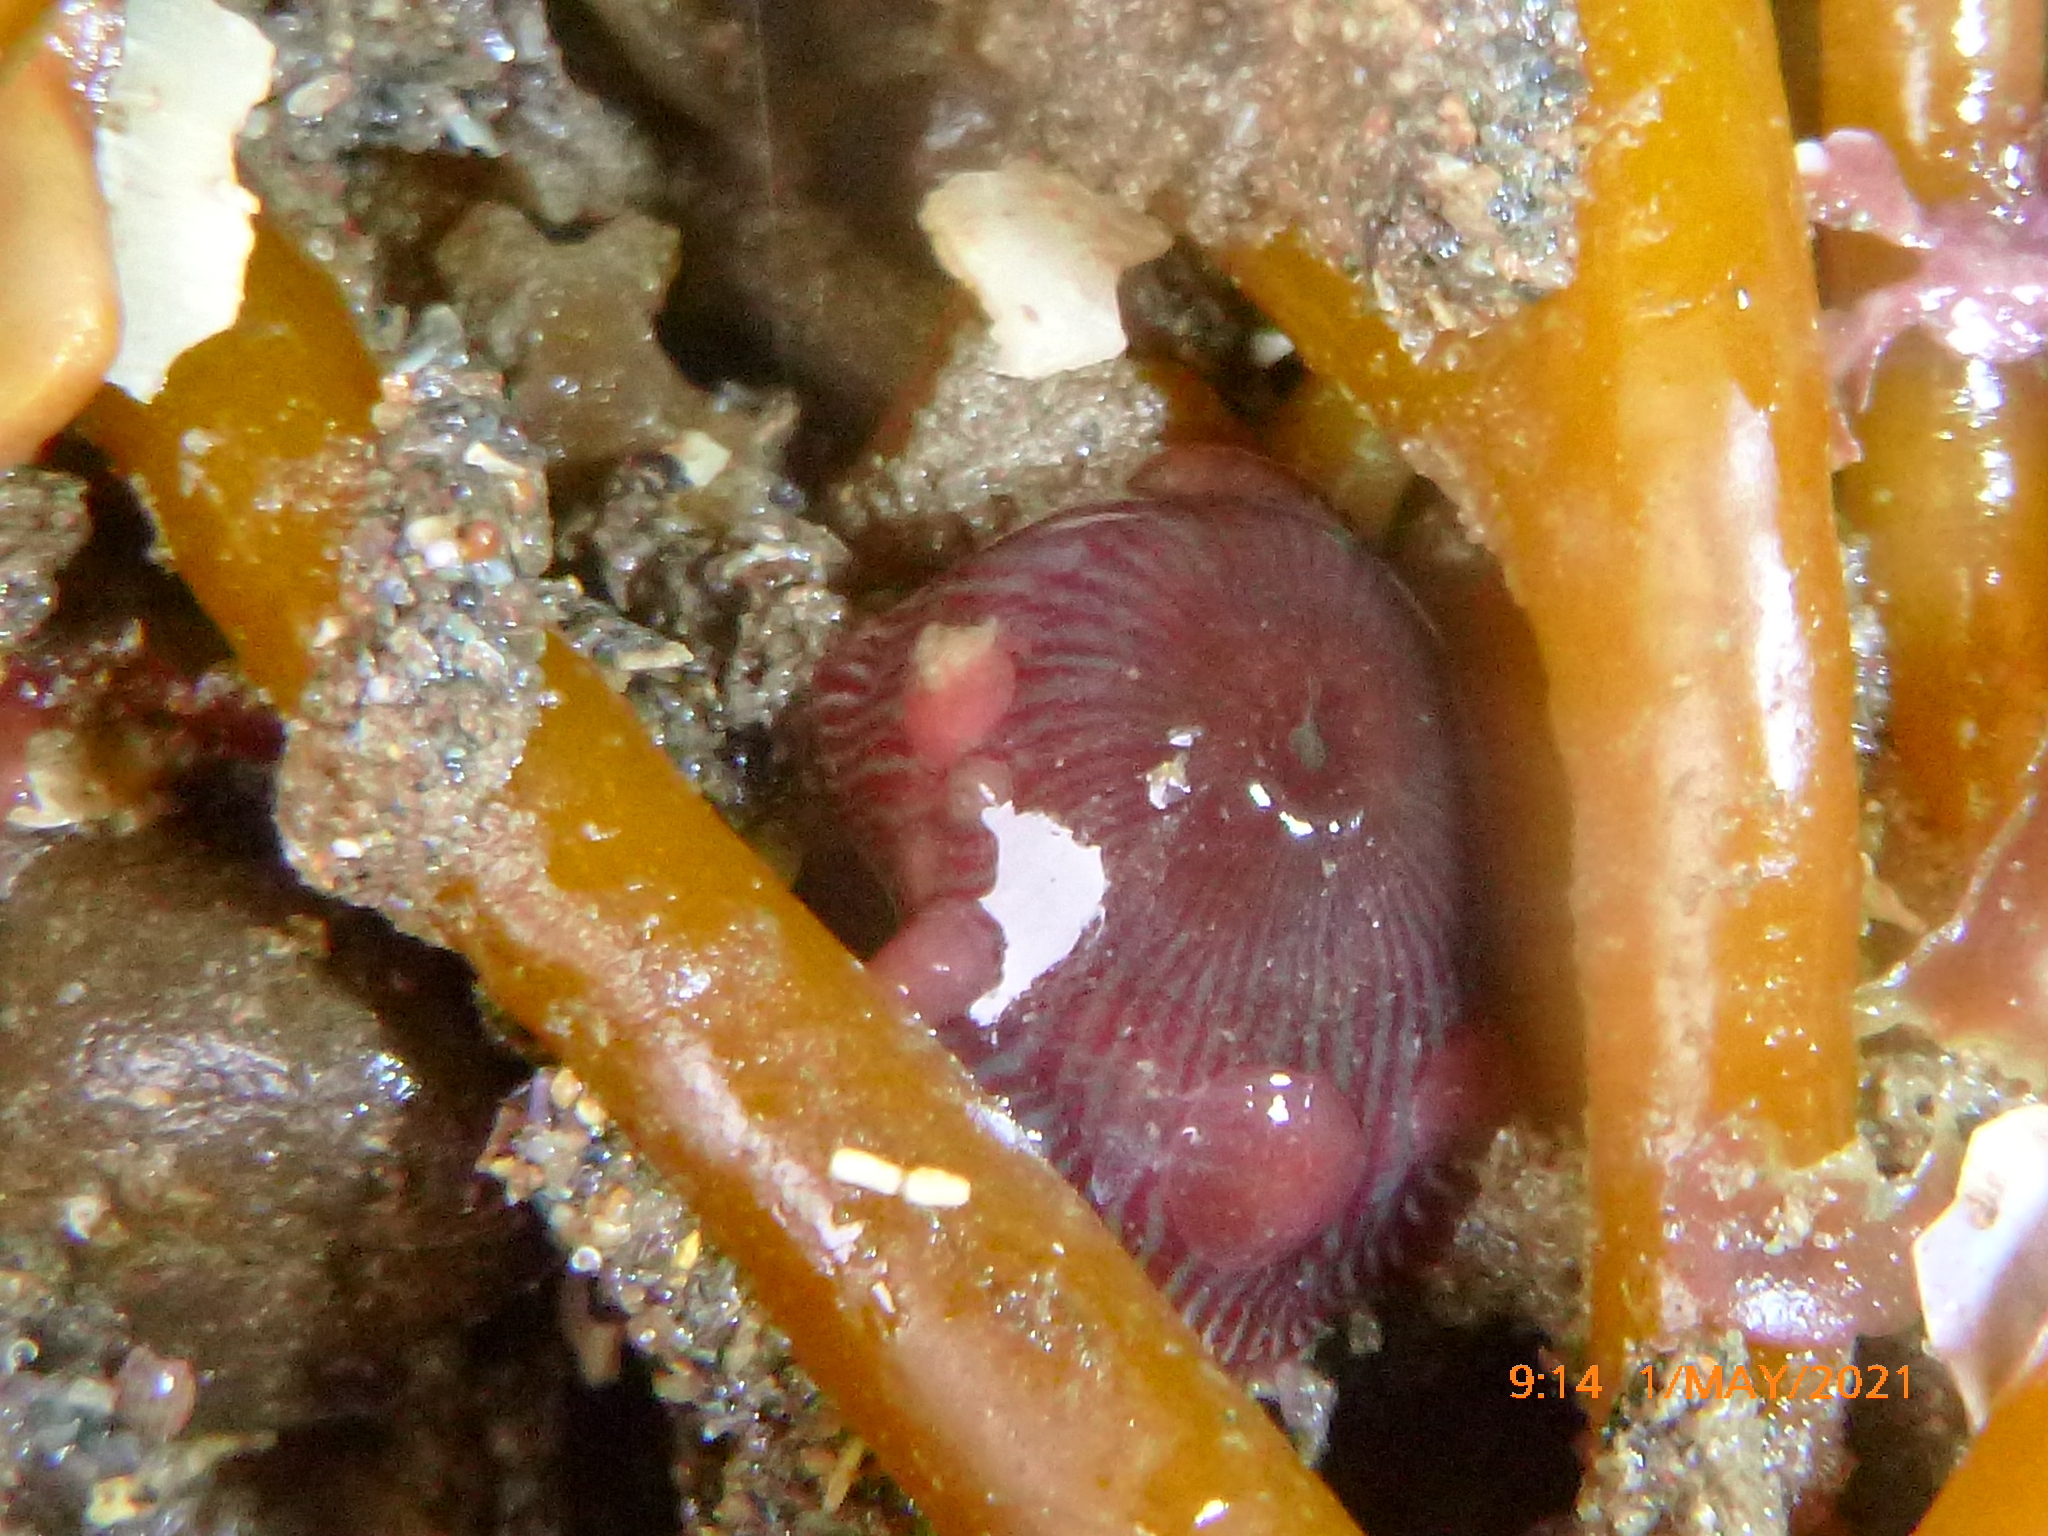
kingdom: Animalia
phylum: Cnidaria
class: Anthozoa
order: Actiniaria
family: Actiniidae
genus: Epiactis
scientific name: Epiactis prolifera
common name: Brooding anemone
